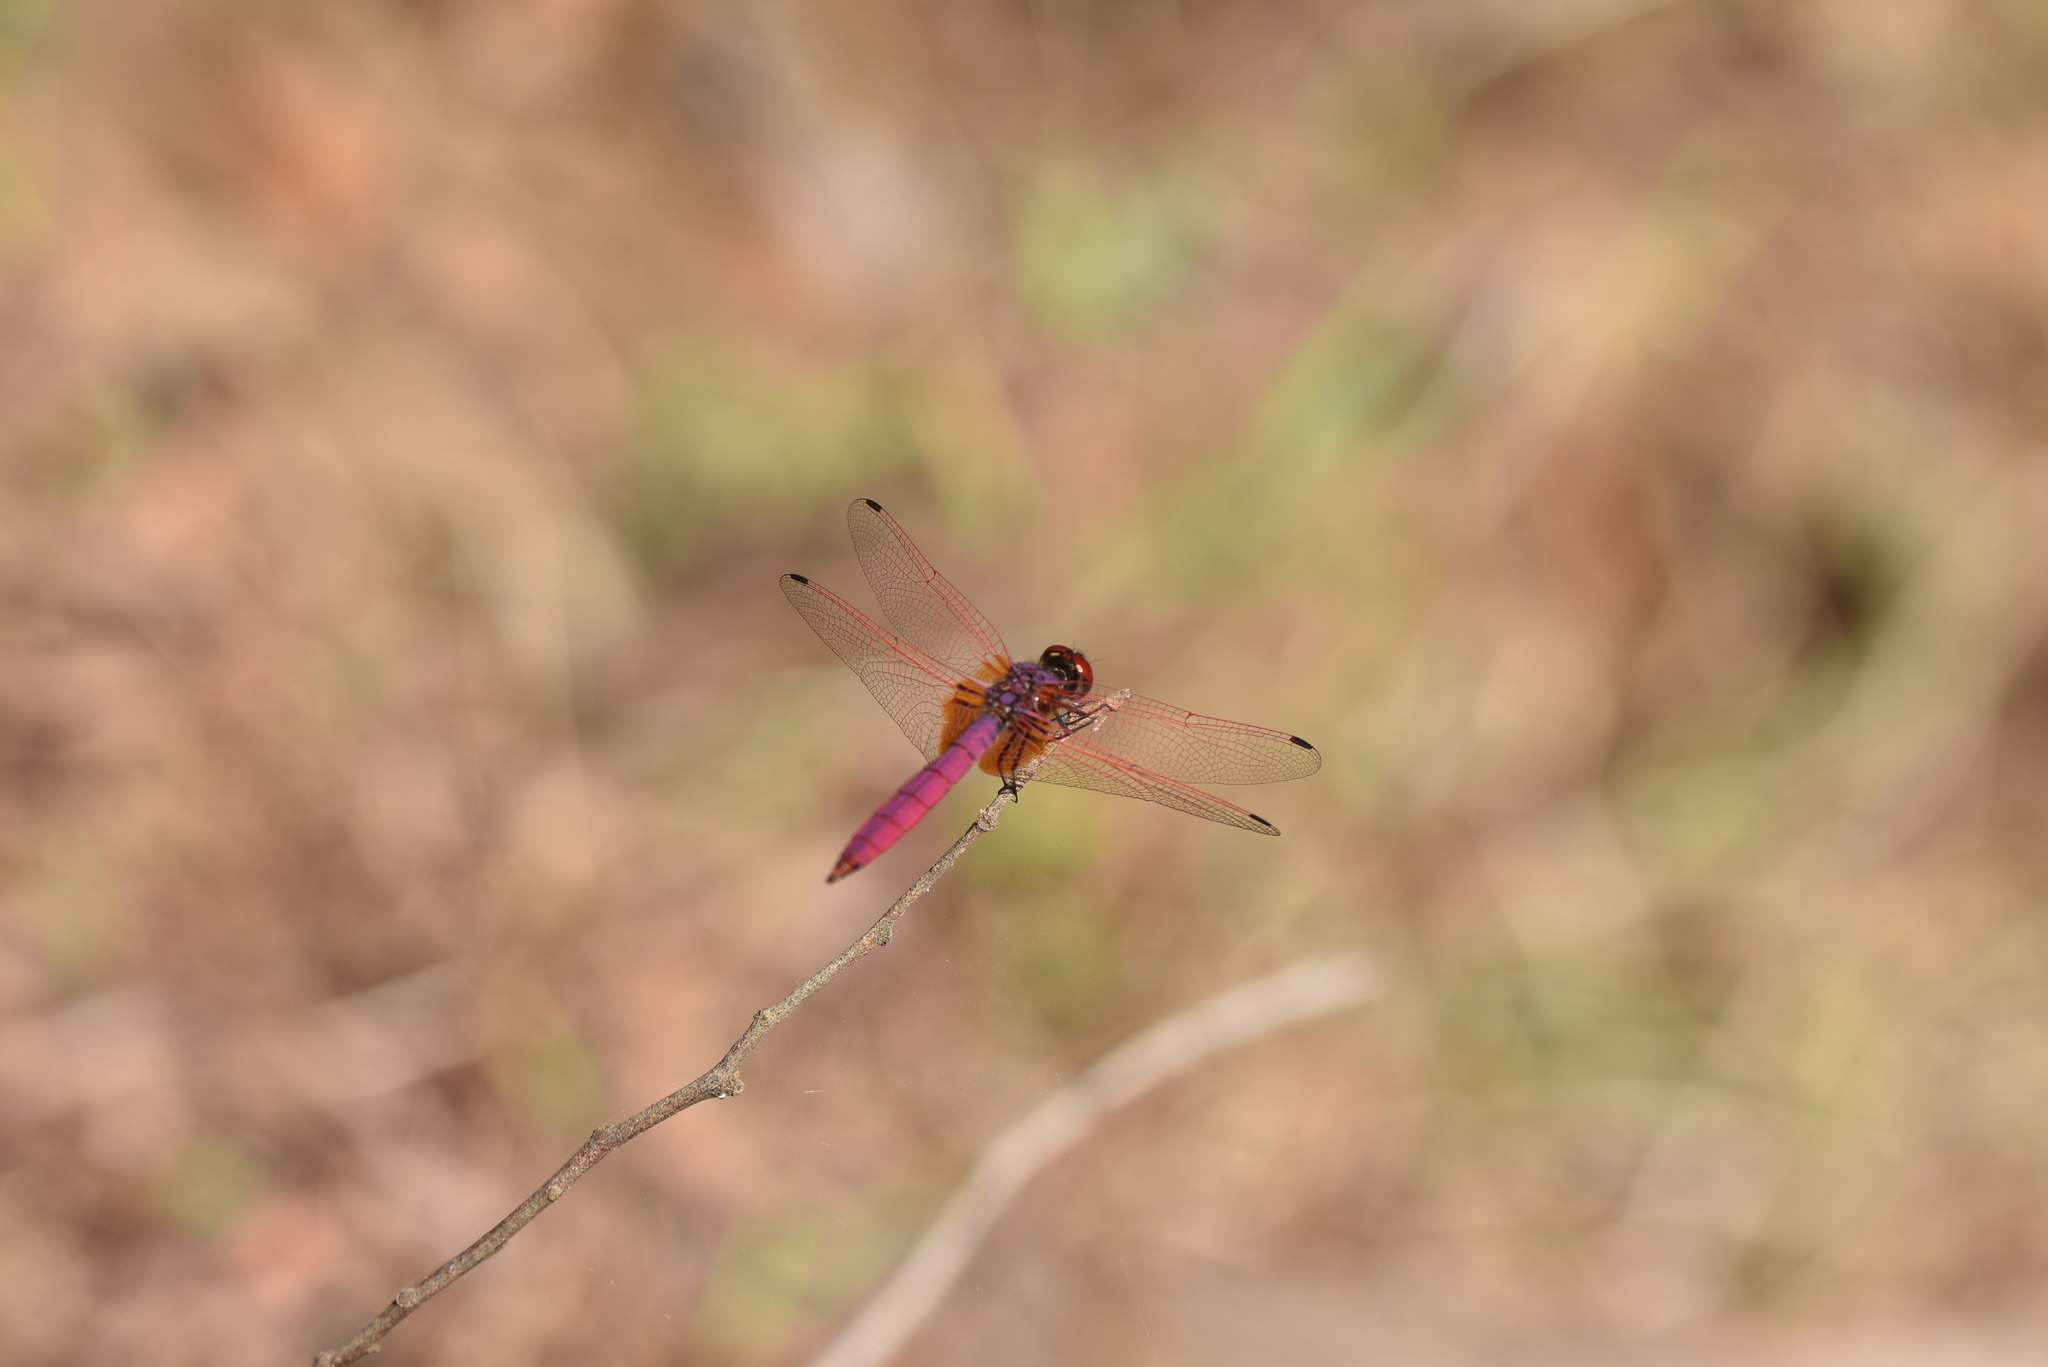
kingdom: Animalia
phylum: Arthropoda
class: Insecta
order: Odonata
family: Libellulidae
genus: Trithemis
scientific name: Trithemis aurora
